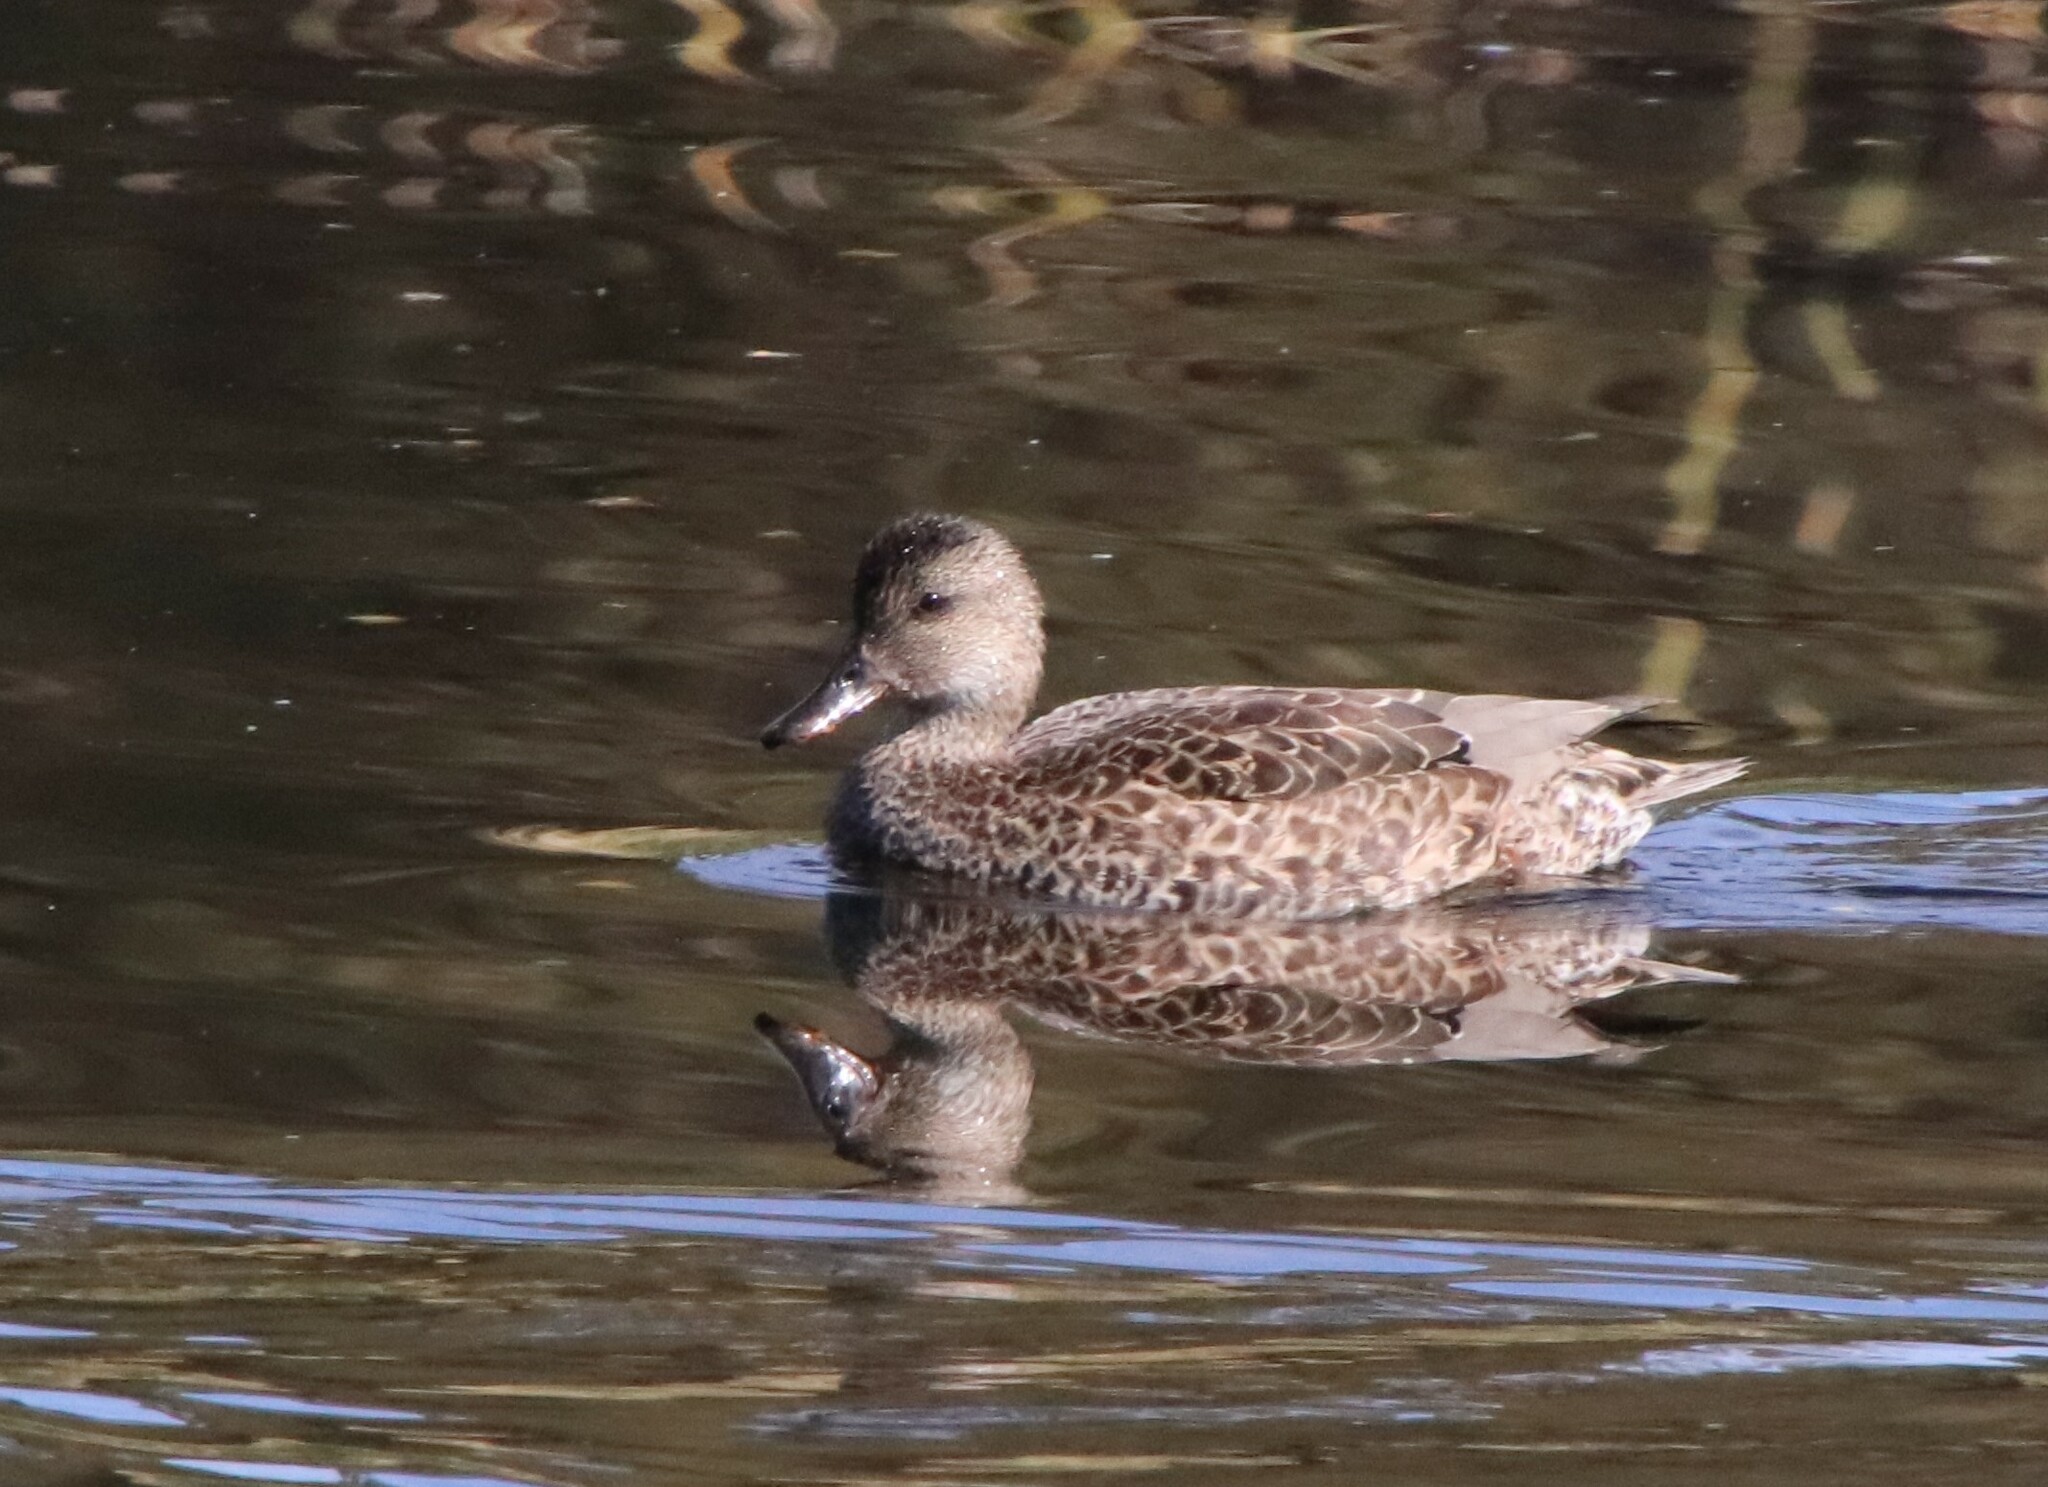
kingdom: Animalia
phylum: Chordata
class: Aves
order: Anseriformes
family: Anatidae
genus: Mareca
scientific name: Mareca strepera
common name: Gadwall
